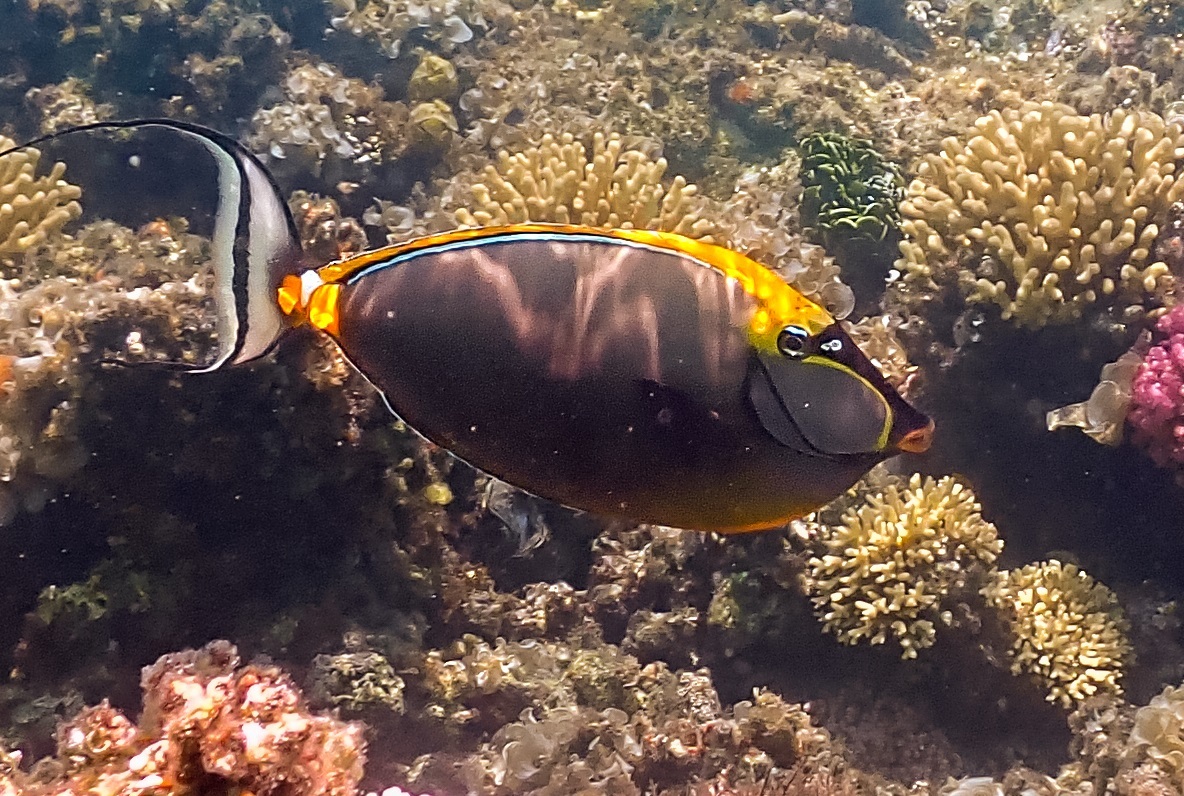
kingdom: Animalia
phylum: Chordata
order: Perciformes
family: Acanthuridae
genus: Naso
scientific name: Naso elegans
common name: Orangespine unicornfish
